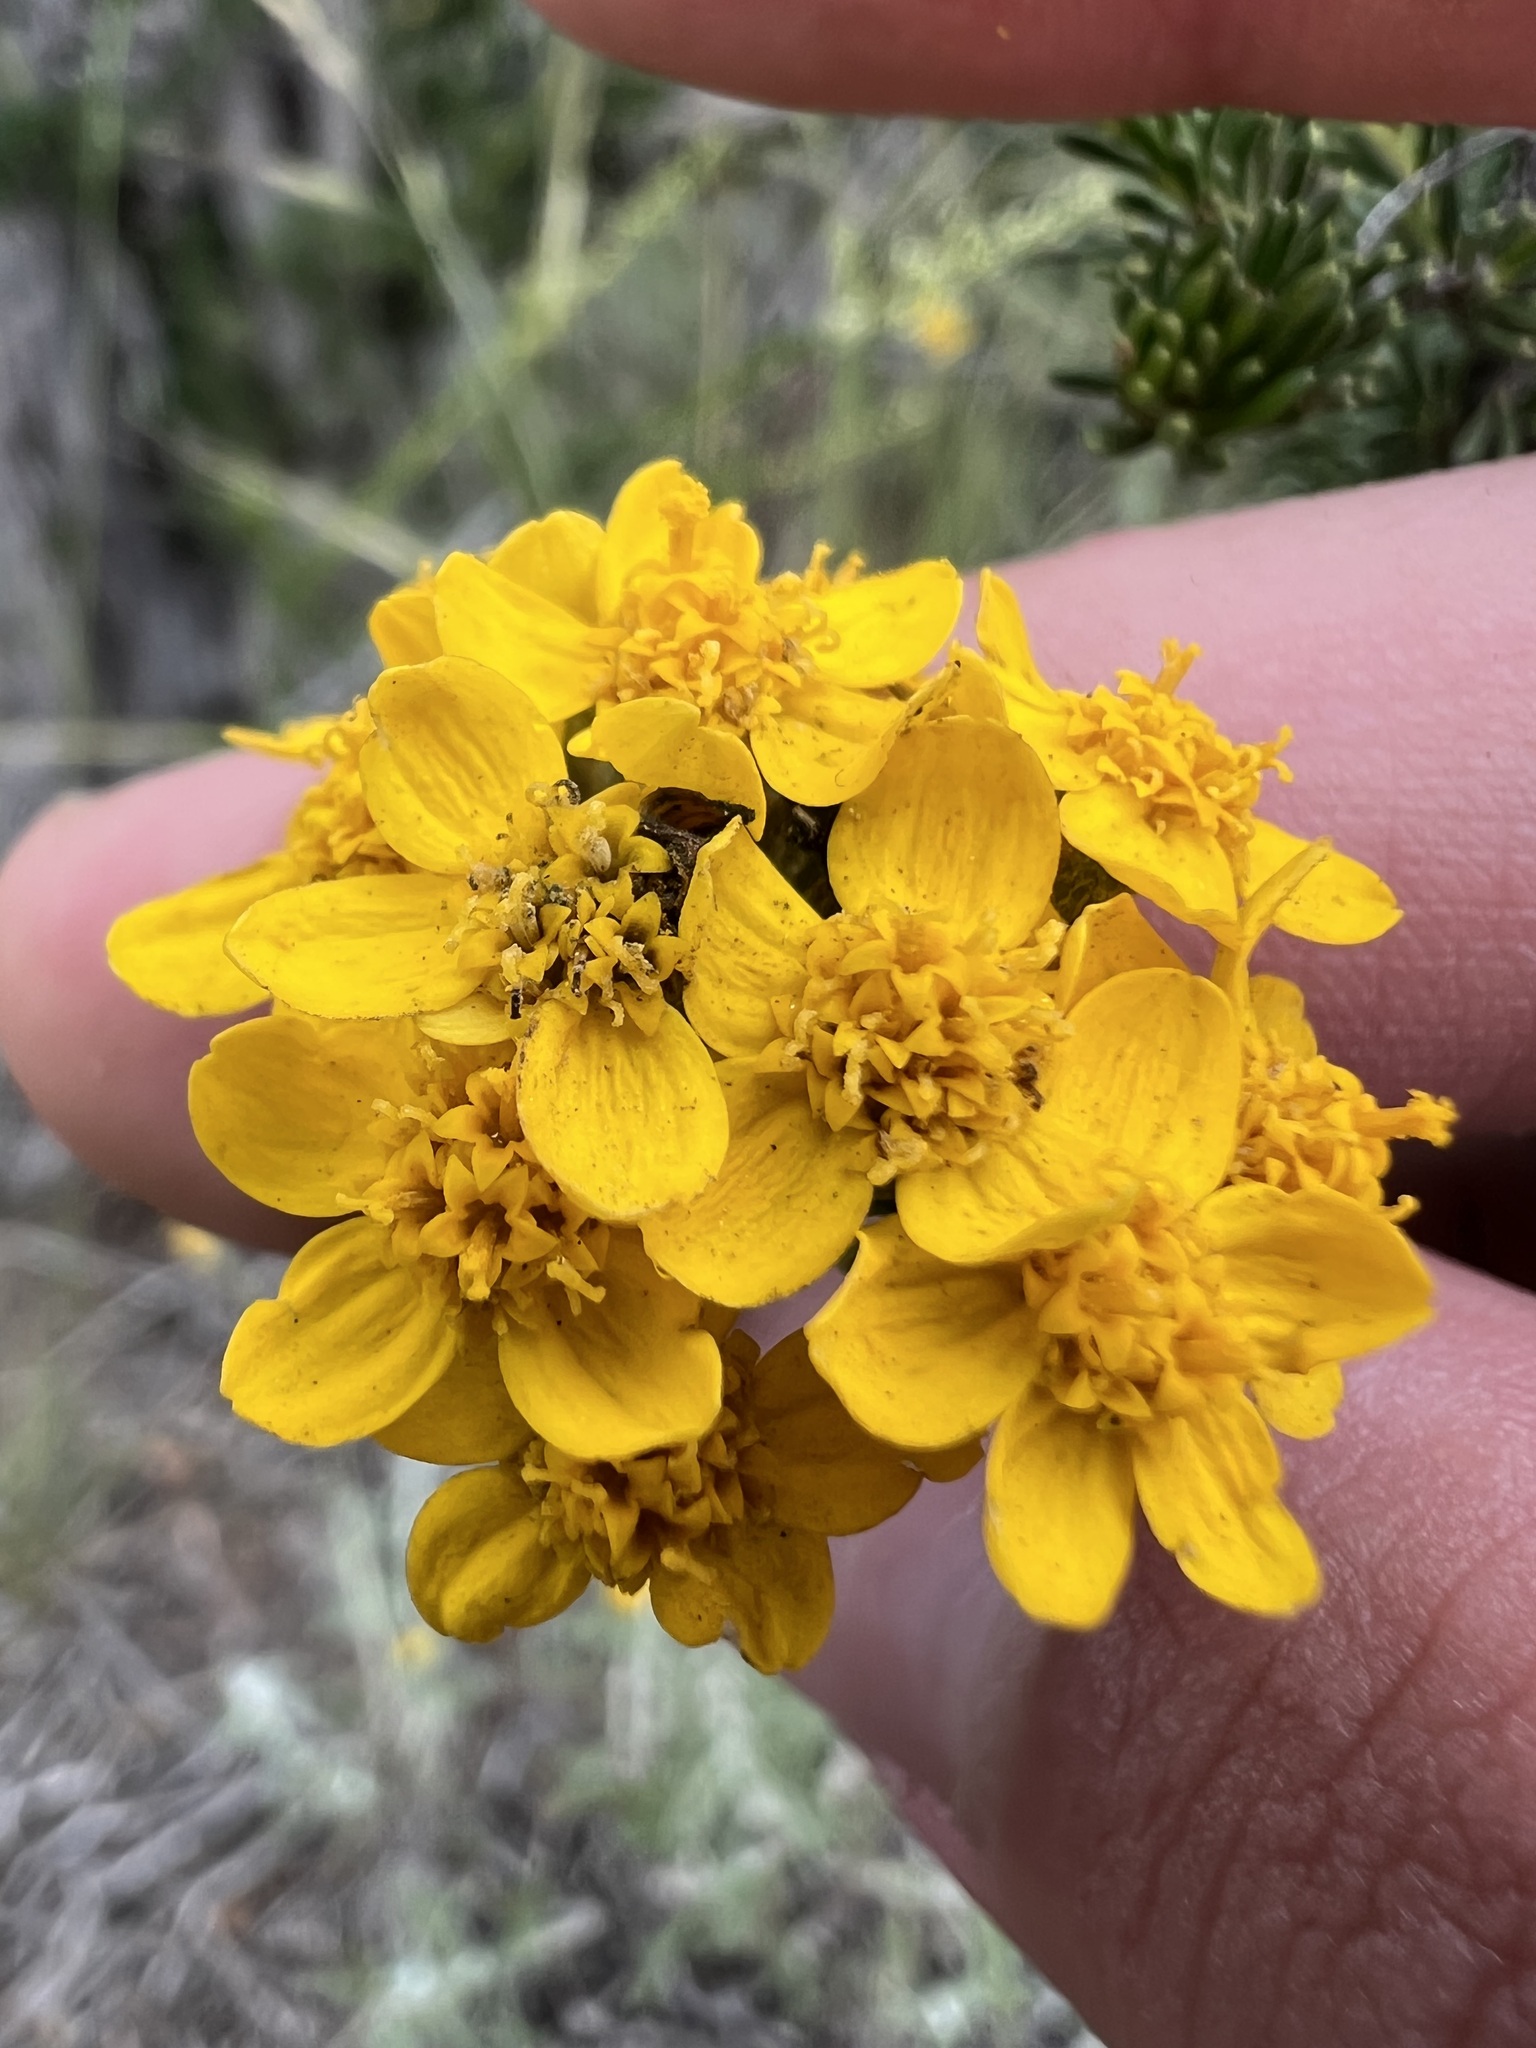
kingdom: Plantae
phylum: Tracheophyta
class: Magnoliopsida
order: Asterales
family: Asteraceae
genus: Eriophyllum
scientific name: Eriophyllum confertiflorum
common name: Golden-yarrow
